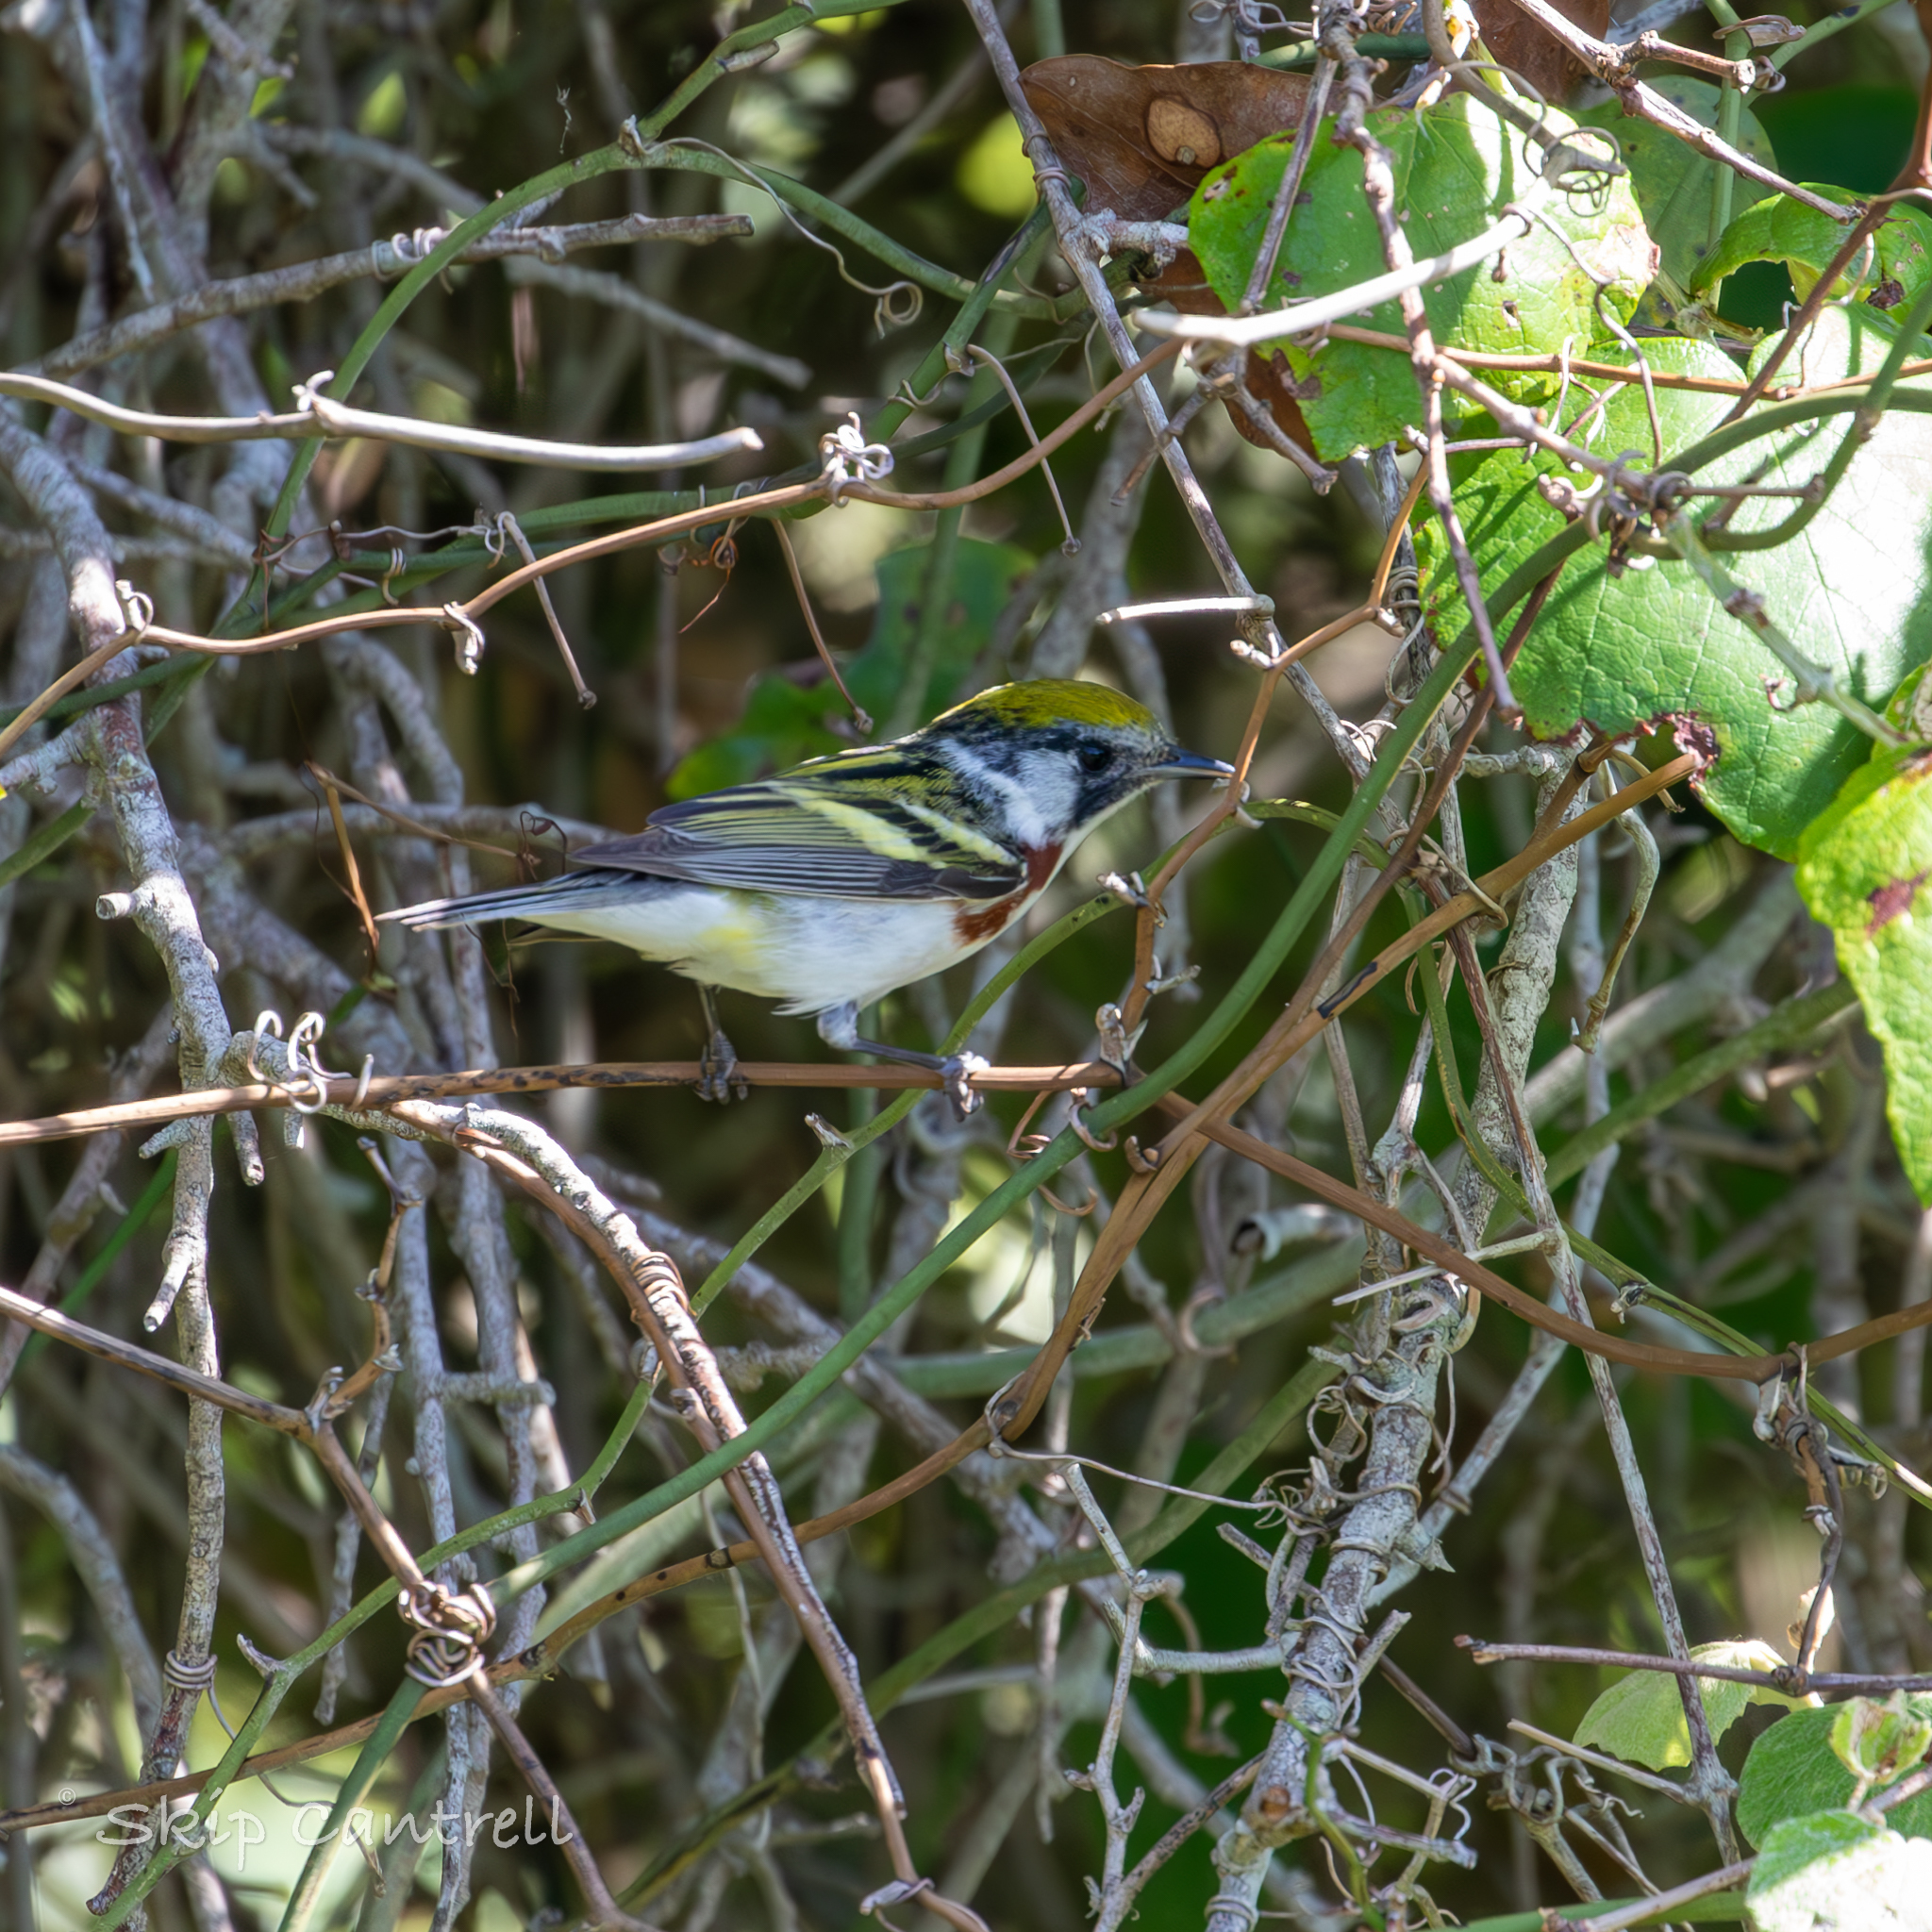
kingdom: Animalia
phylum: Chordata
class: Aves
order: Passeriformes
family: Parulidae
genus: Setophaga
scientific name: Setophaga pensylvanica
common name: Chestnut-sided warbler
